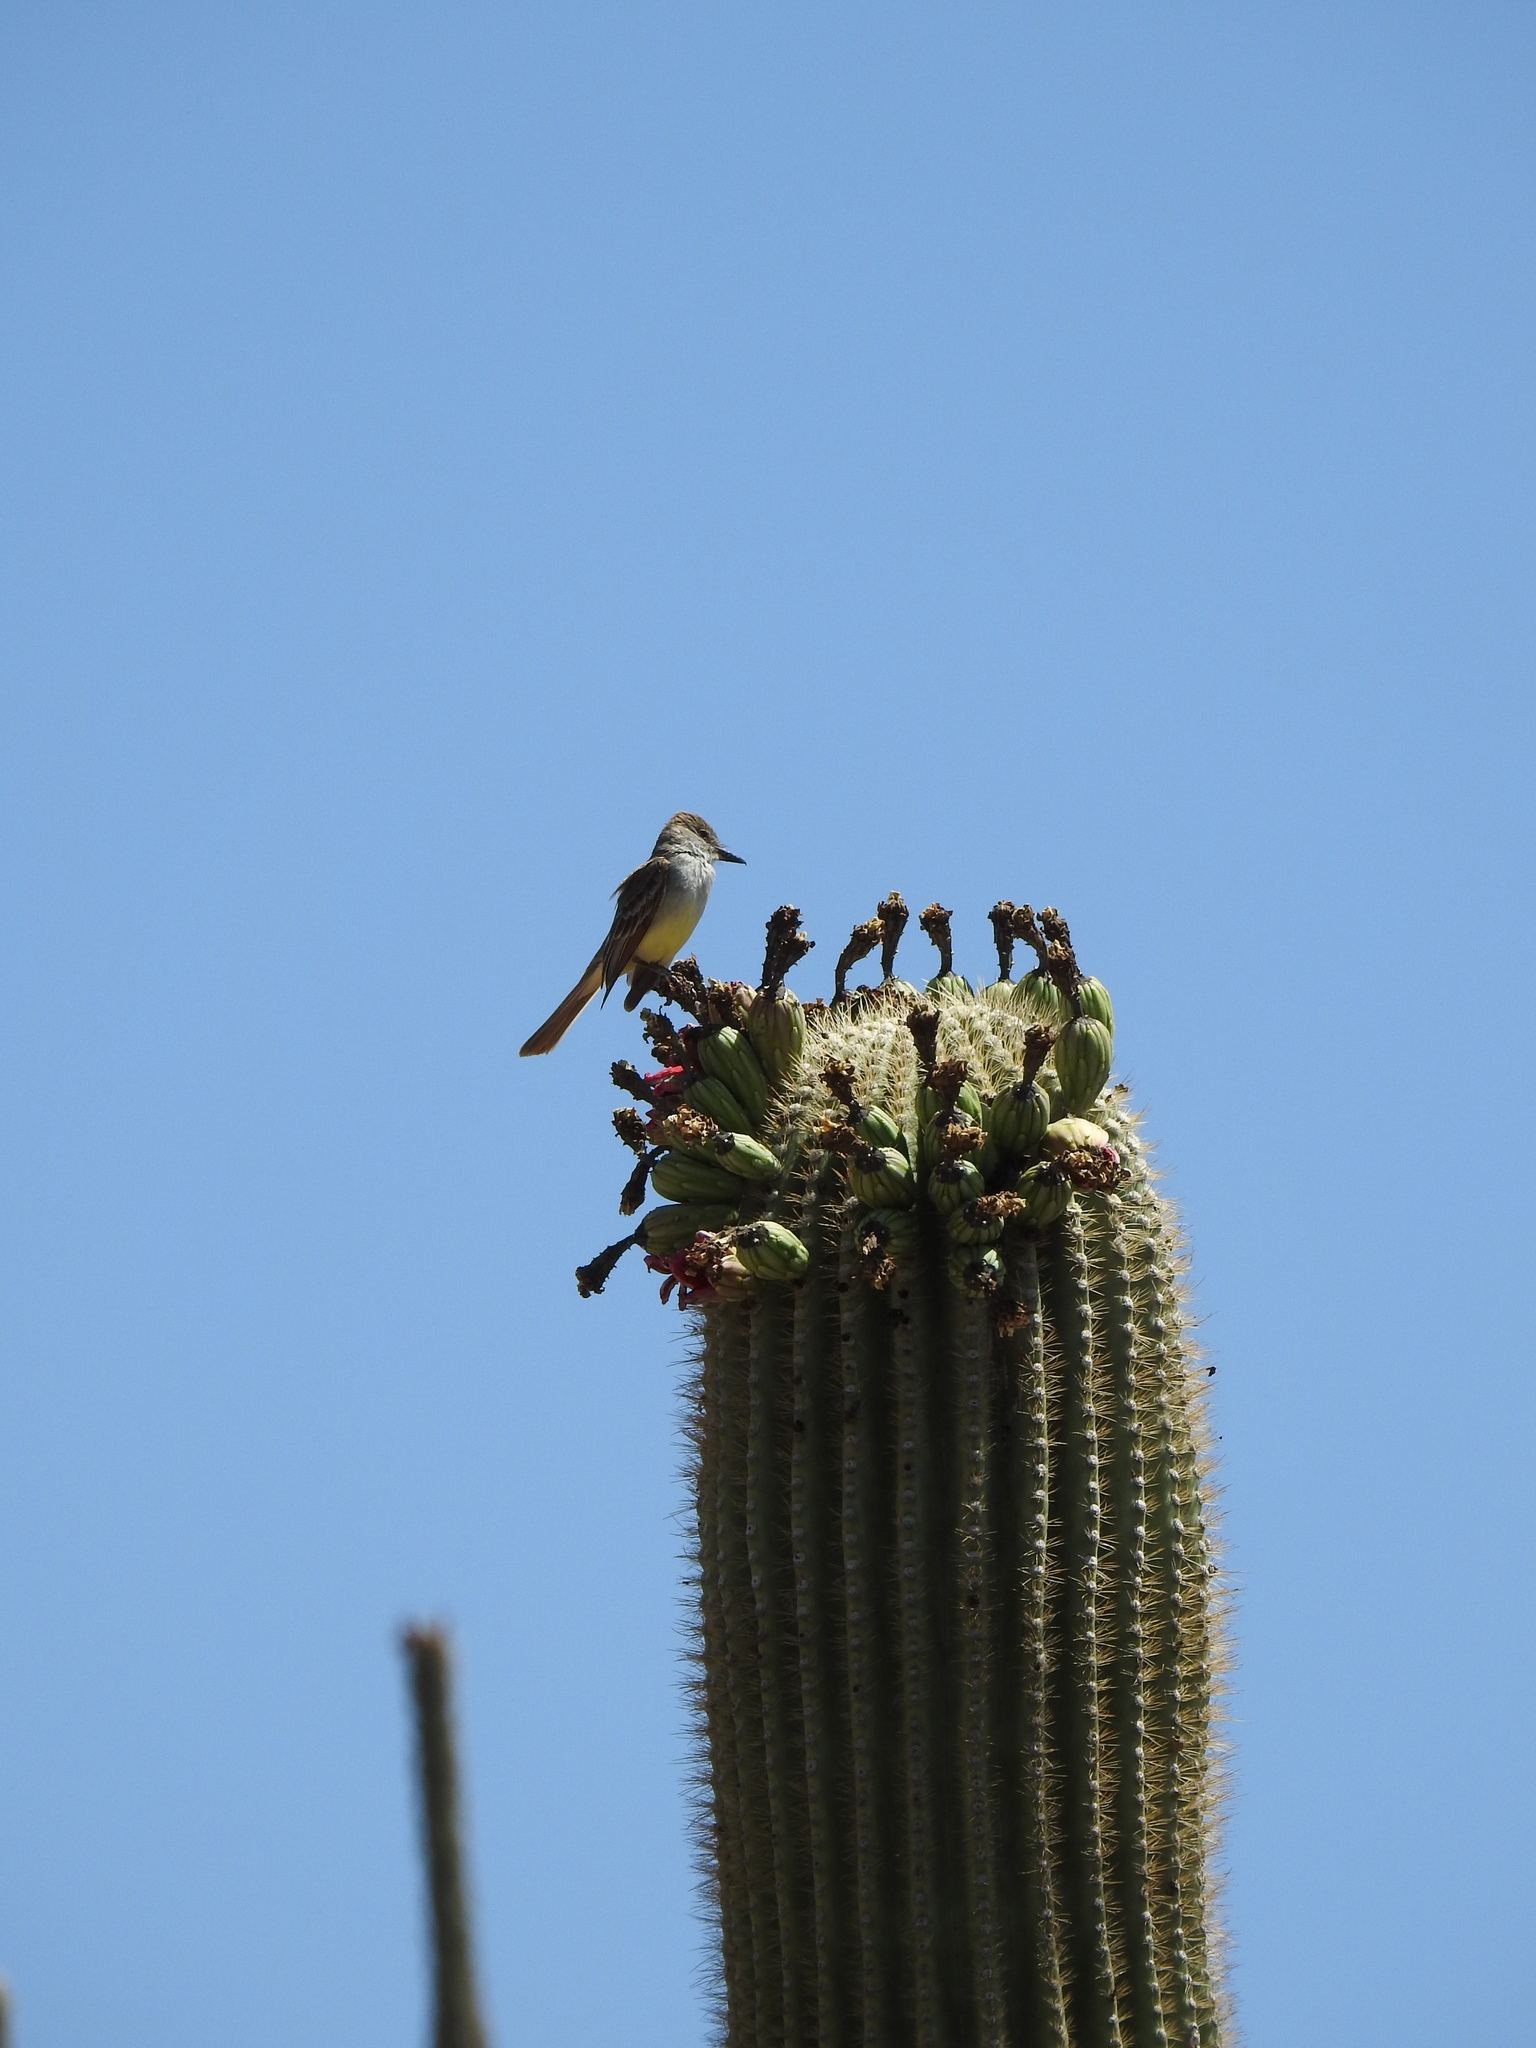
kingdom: Animalia
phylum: Chordata
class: Aves
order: Passeriformes
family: Tyrannidae
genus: Myiarchus
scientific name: Myiarchus tyrannulus
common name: Brown-crested flycatcher
